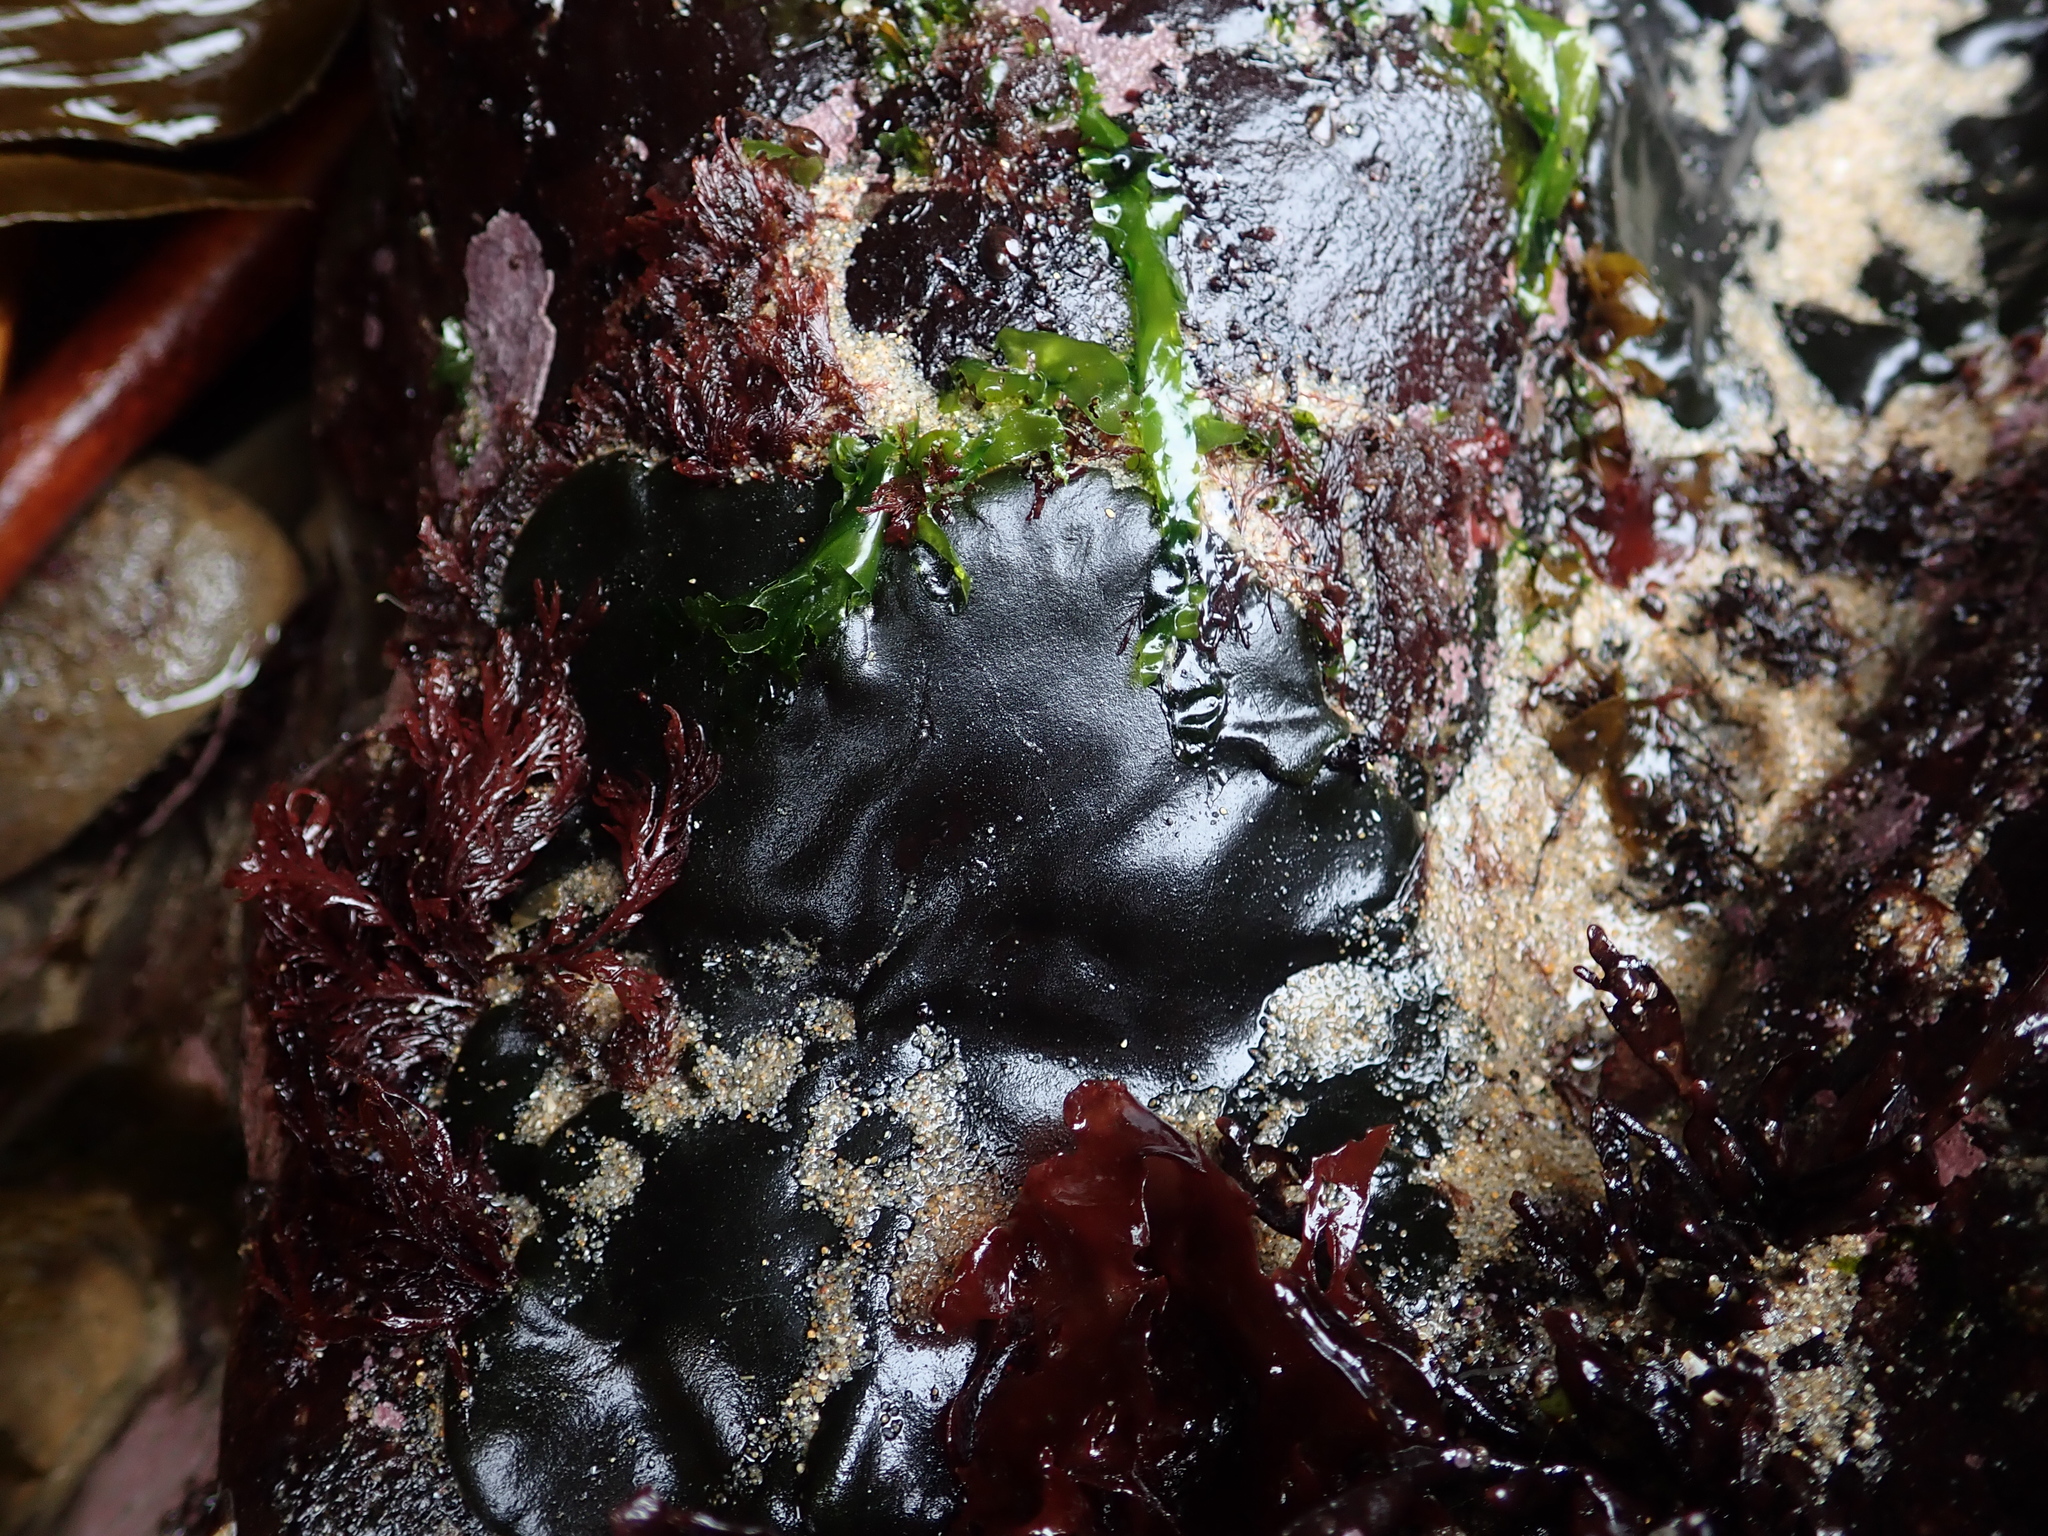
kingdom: Plantae
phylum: Chlorophyta
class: Ulvophyceae
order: Bryopsidales
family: Codiaceae
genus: Codium
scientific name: Codium setchellii
